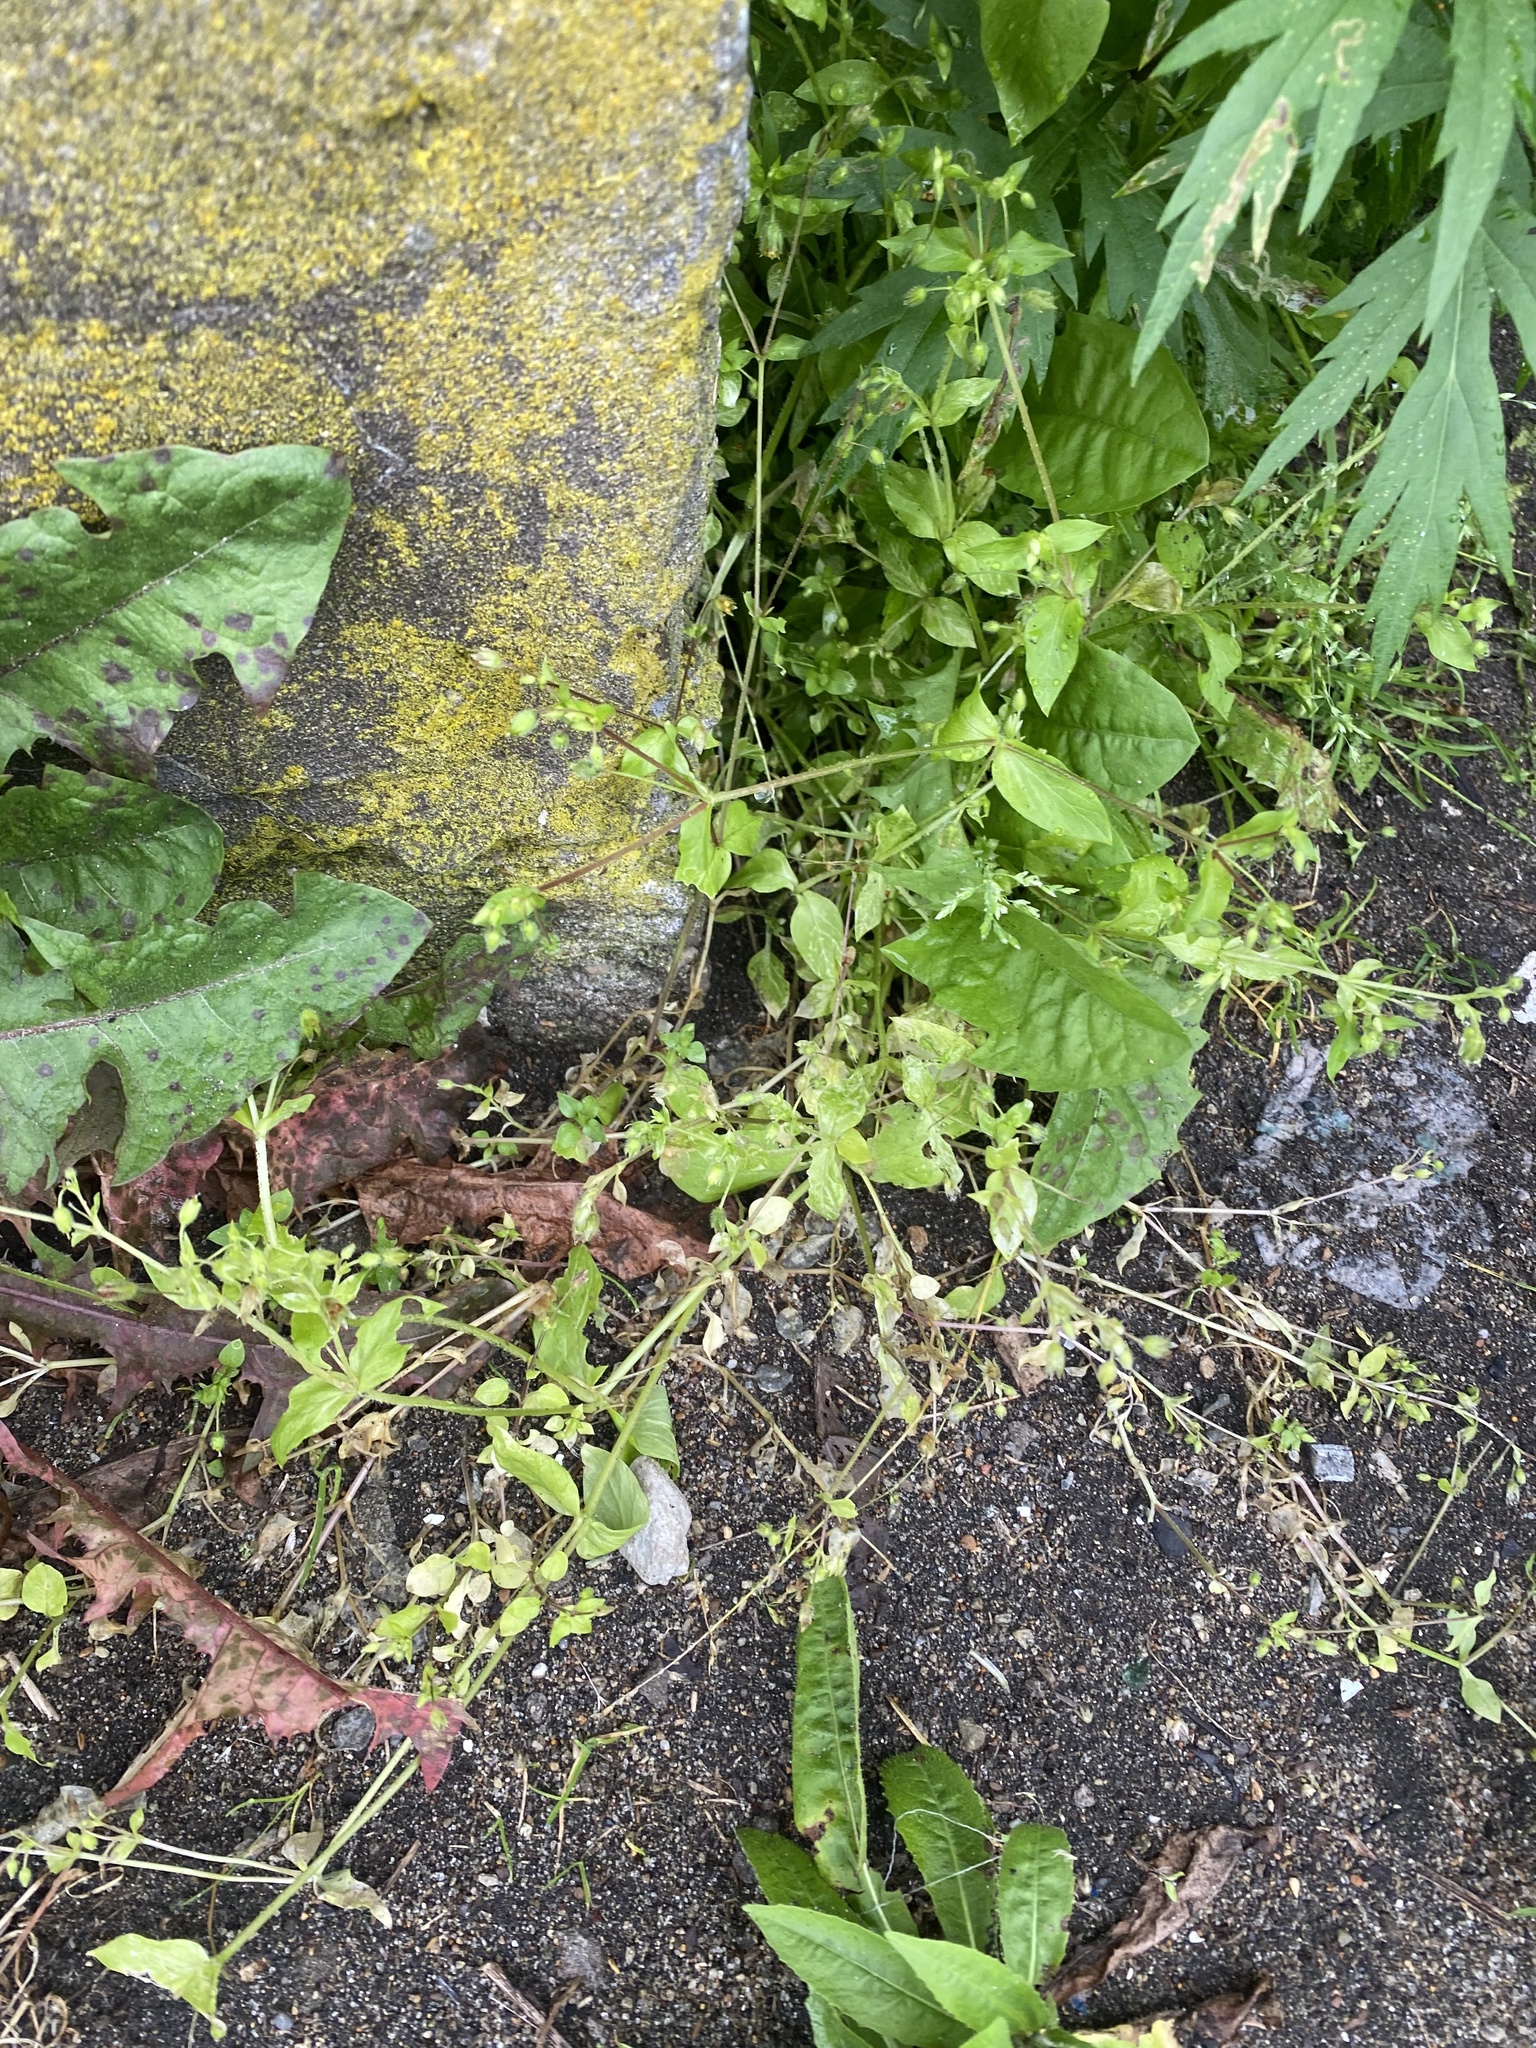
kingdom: Plantae
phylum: Tracheophyta
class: Magnoliopsida
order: Caryophyllales
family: Caryophyllaceae
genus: Stellaria
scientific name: Stellaria media
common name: Common chickweed
